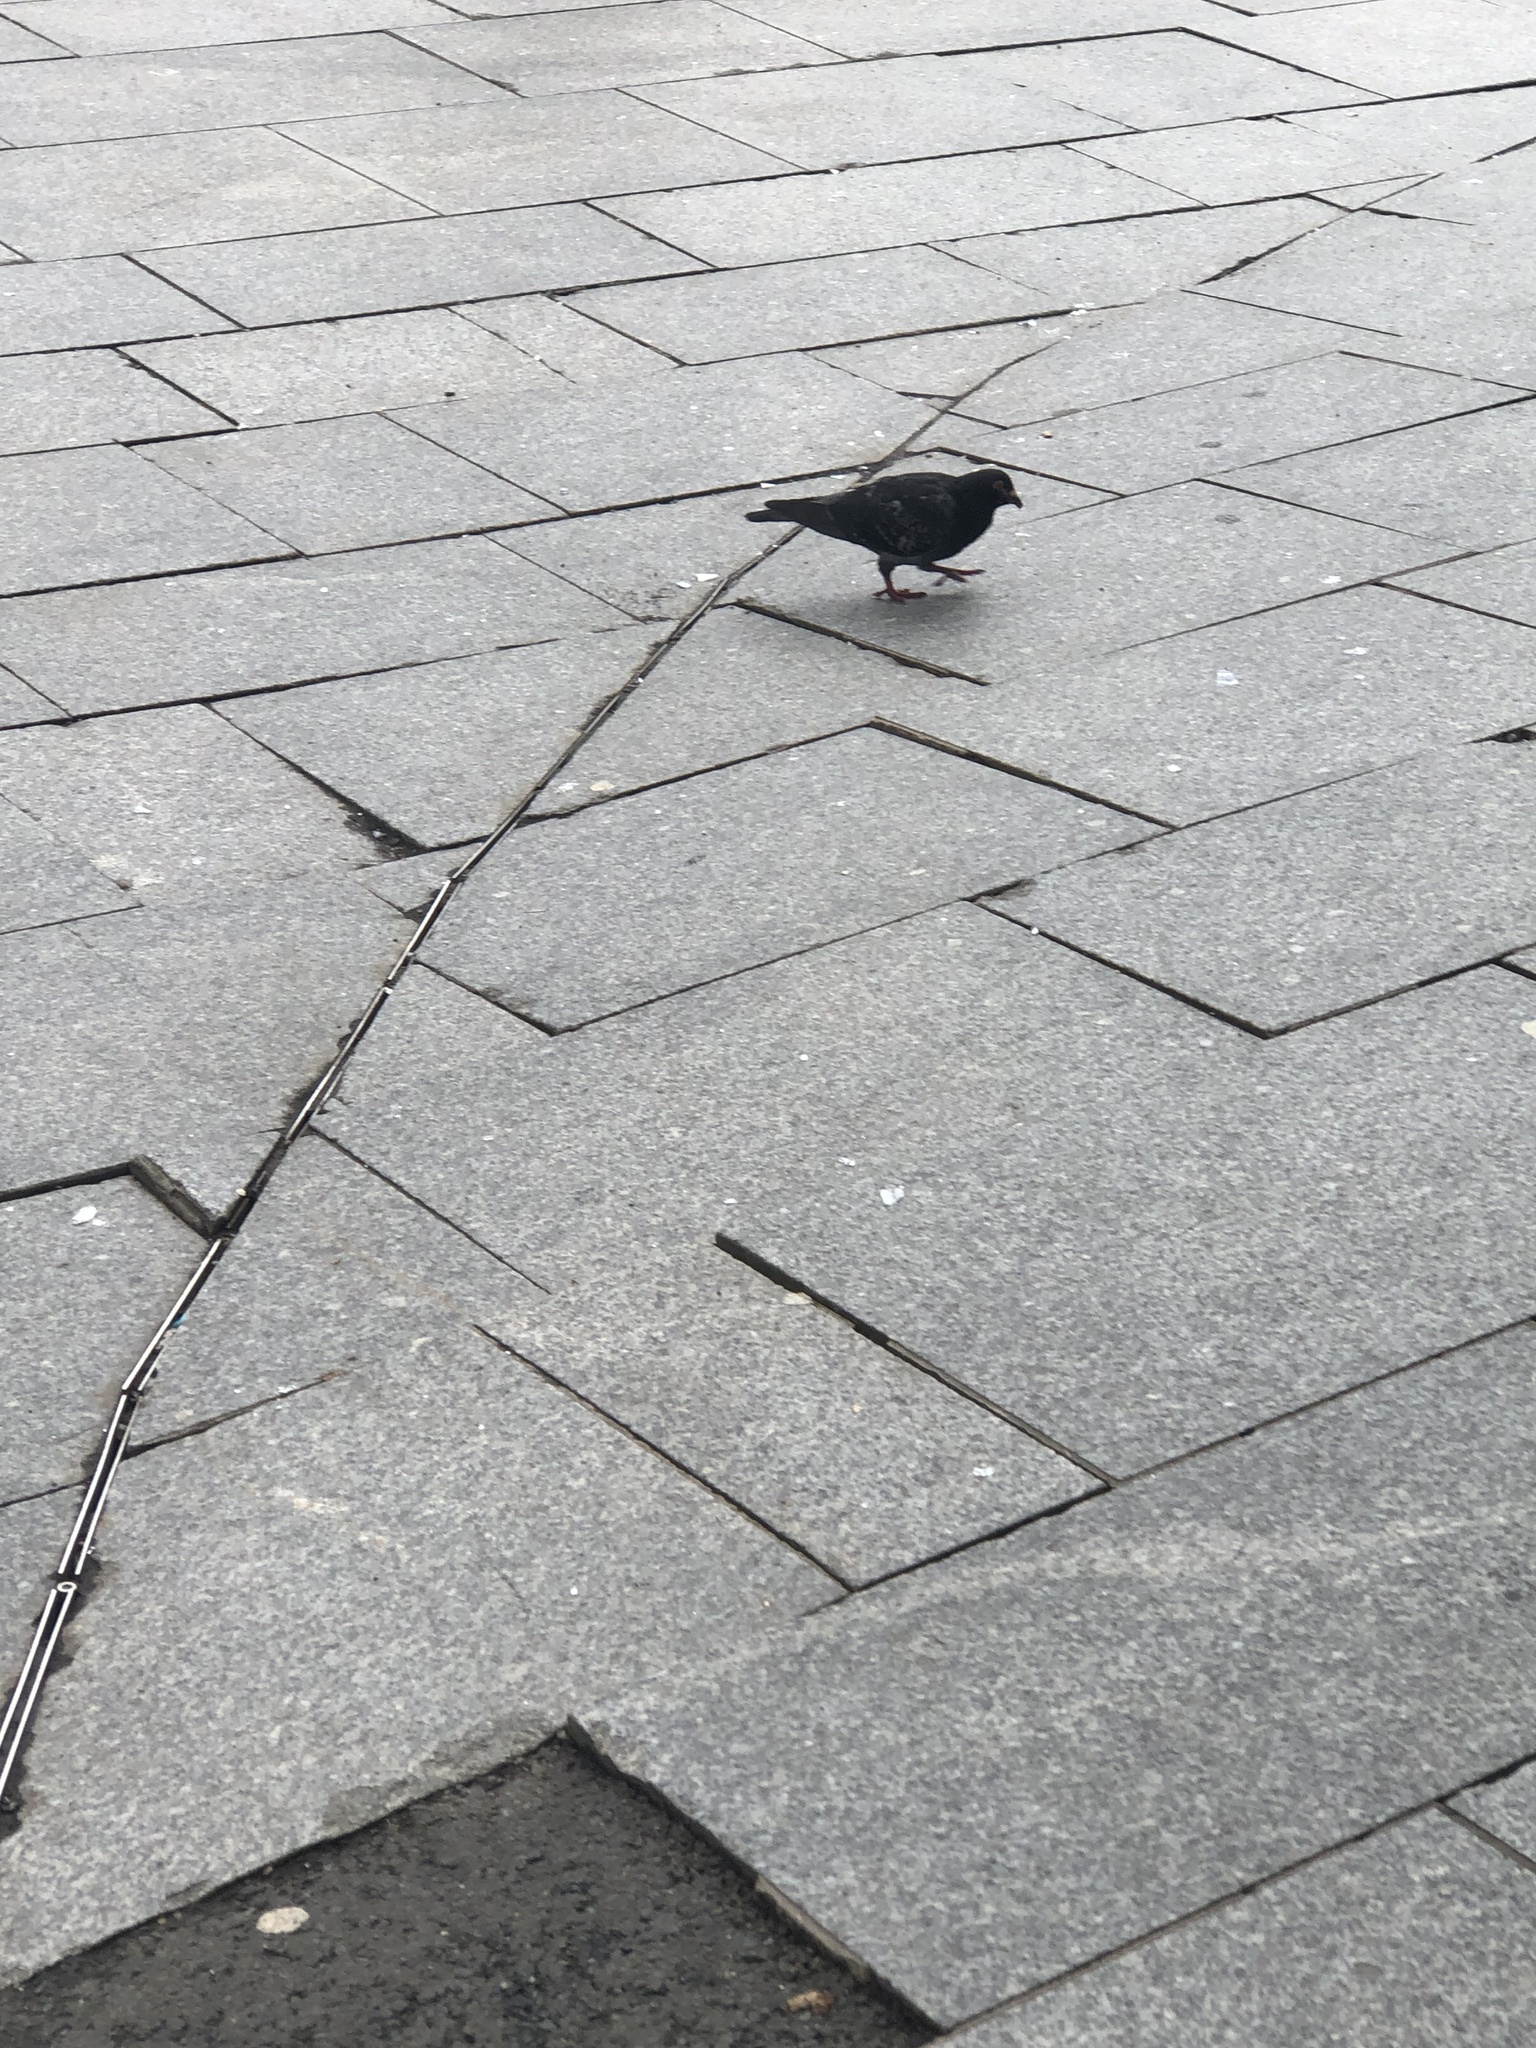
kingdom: Animalia
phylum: Chordata
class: Aves
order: Columbiformes
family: Columbidae
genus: Columba
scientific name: Columba livia
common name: Rock pigeon
